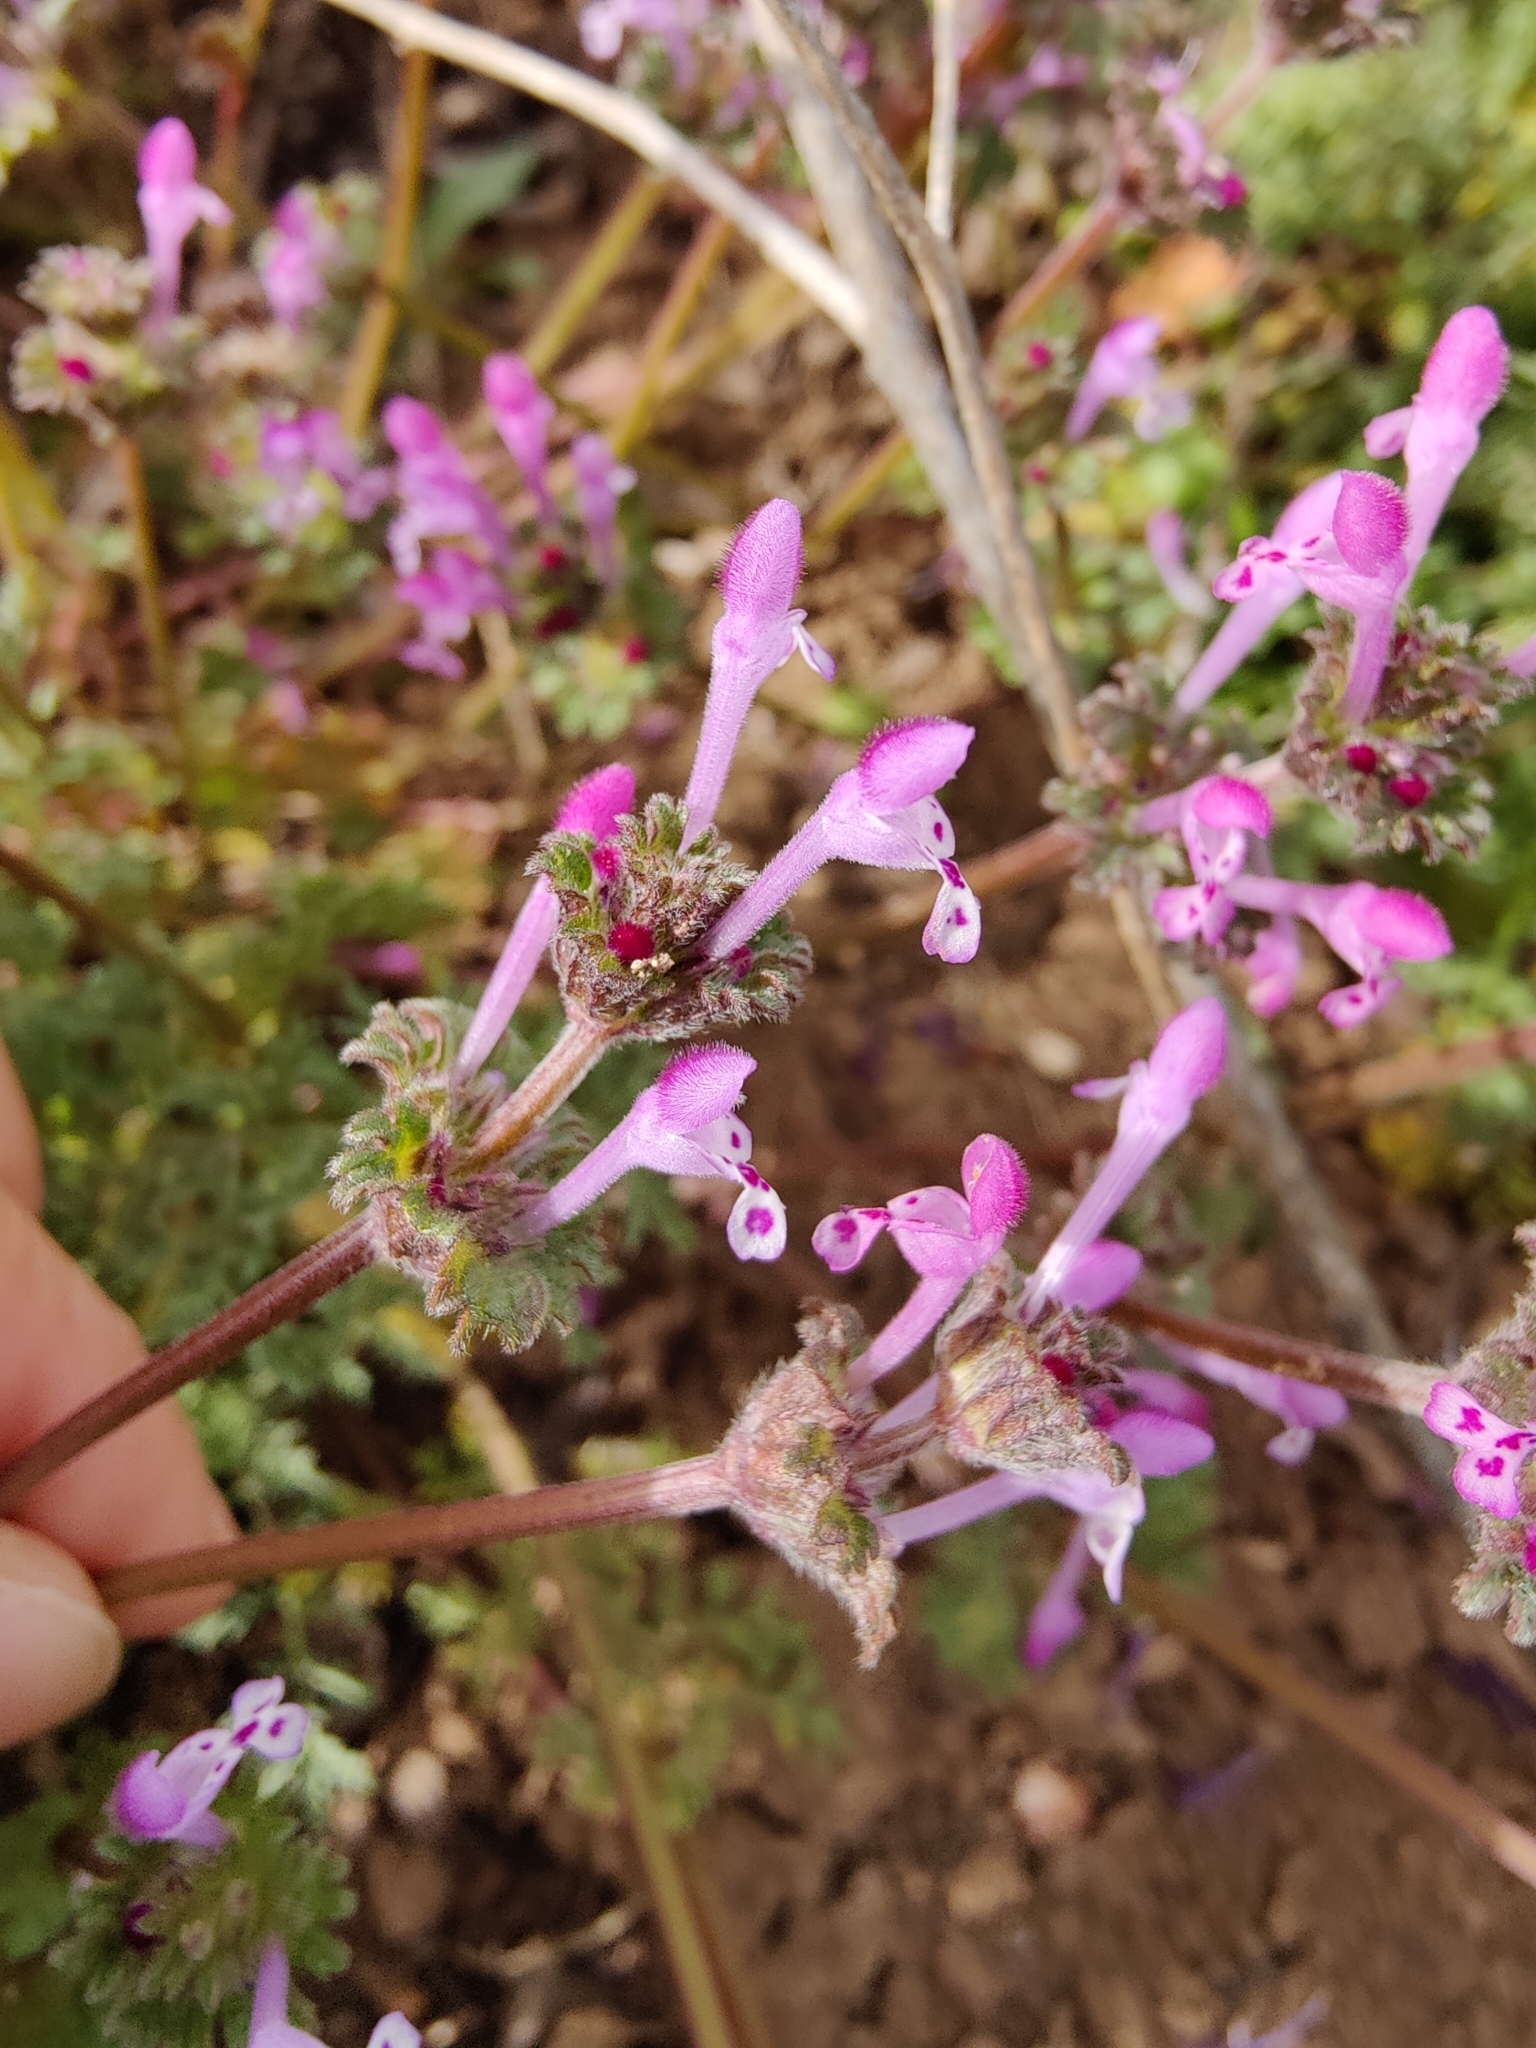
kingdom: Plantae
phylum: Tracheophyta
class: Magnoliopsida
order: Lamiales
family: Lamiaceae
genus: Lamium
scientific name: Lamium amplexicaule
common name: Henbit dead-nettle
